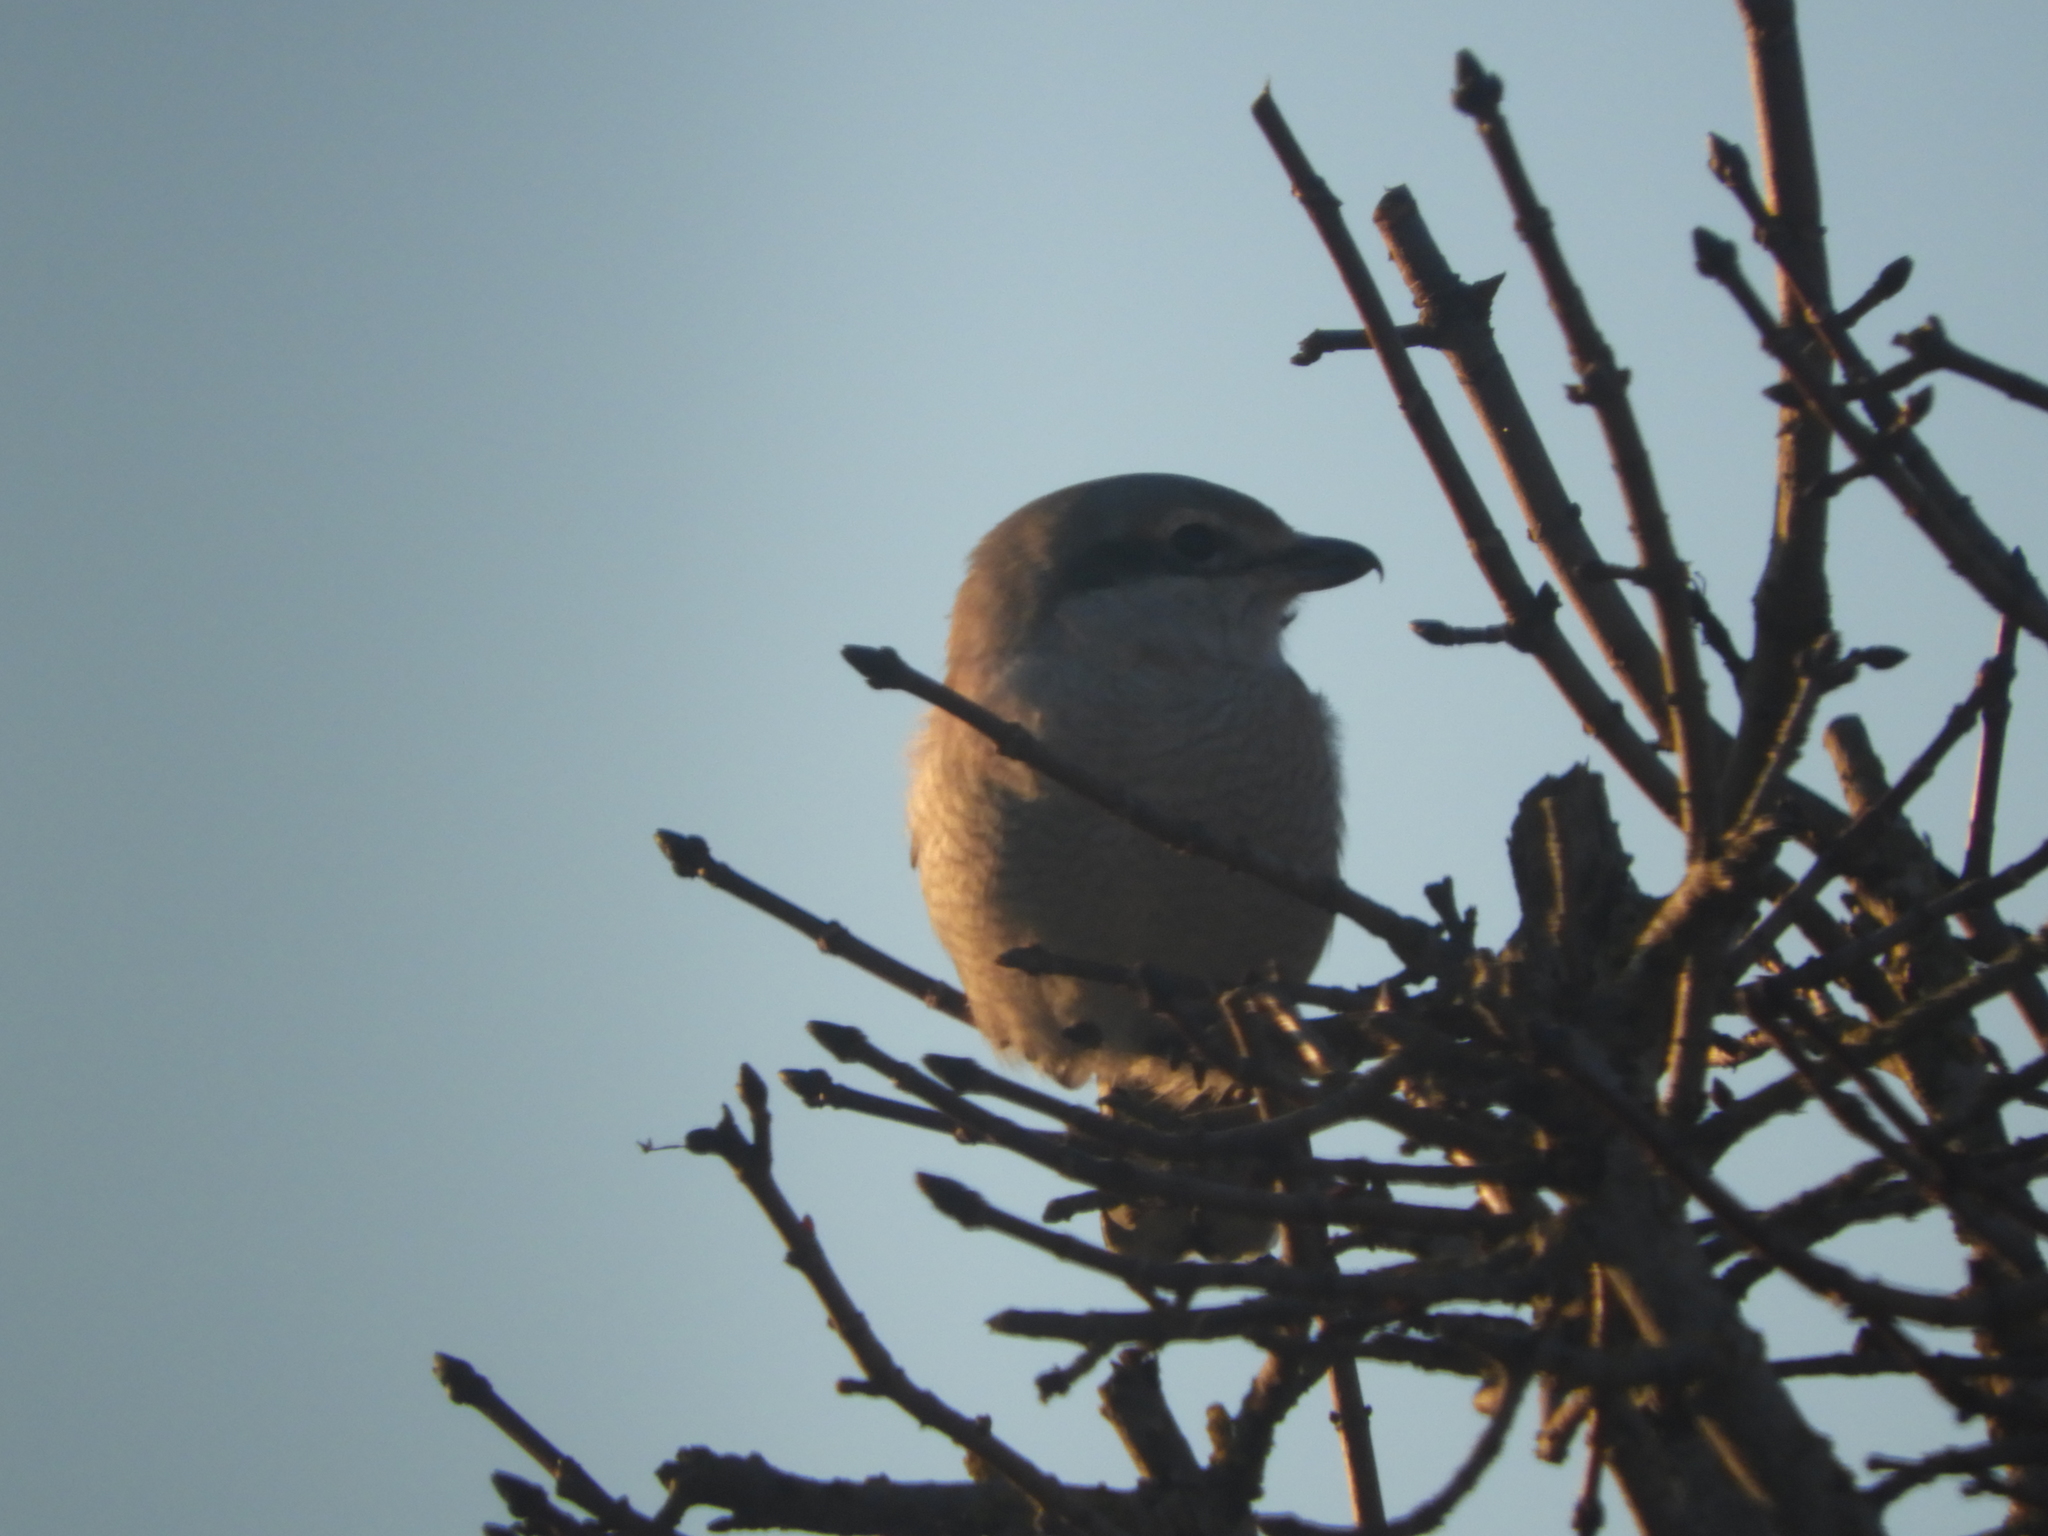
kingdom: Animalia
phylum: Chordata
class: Aves
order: Passeriformes
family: Laniidae
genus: Lanius
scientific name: Lanius borealis
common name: Northern shrike
